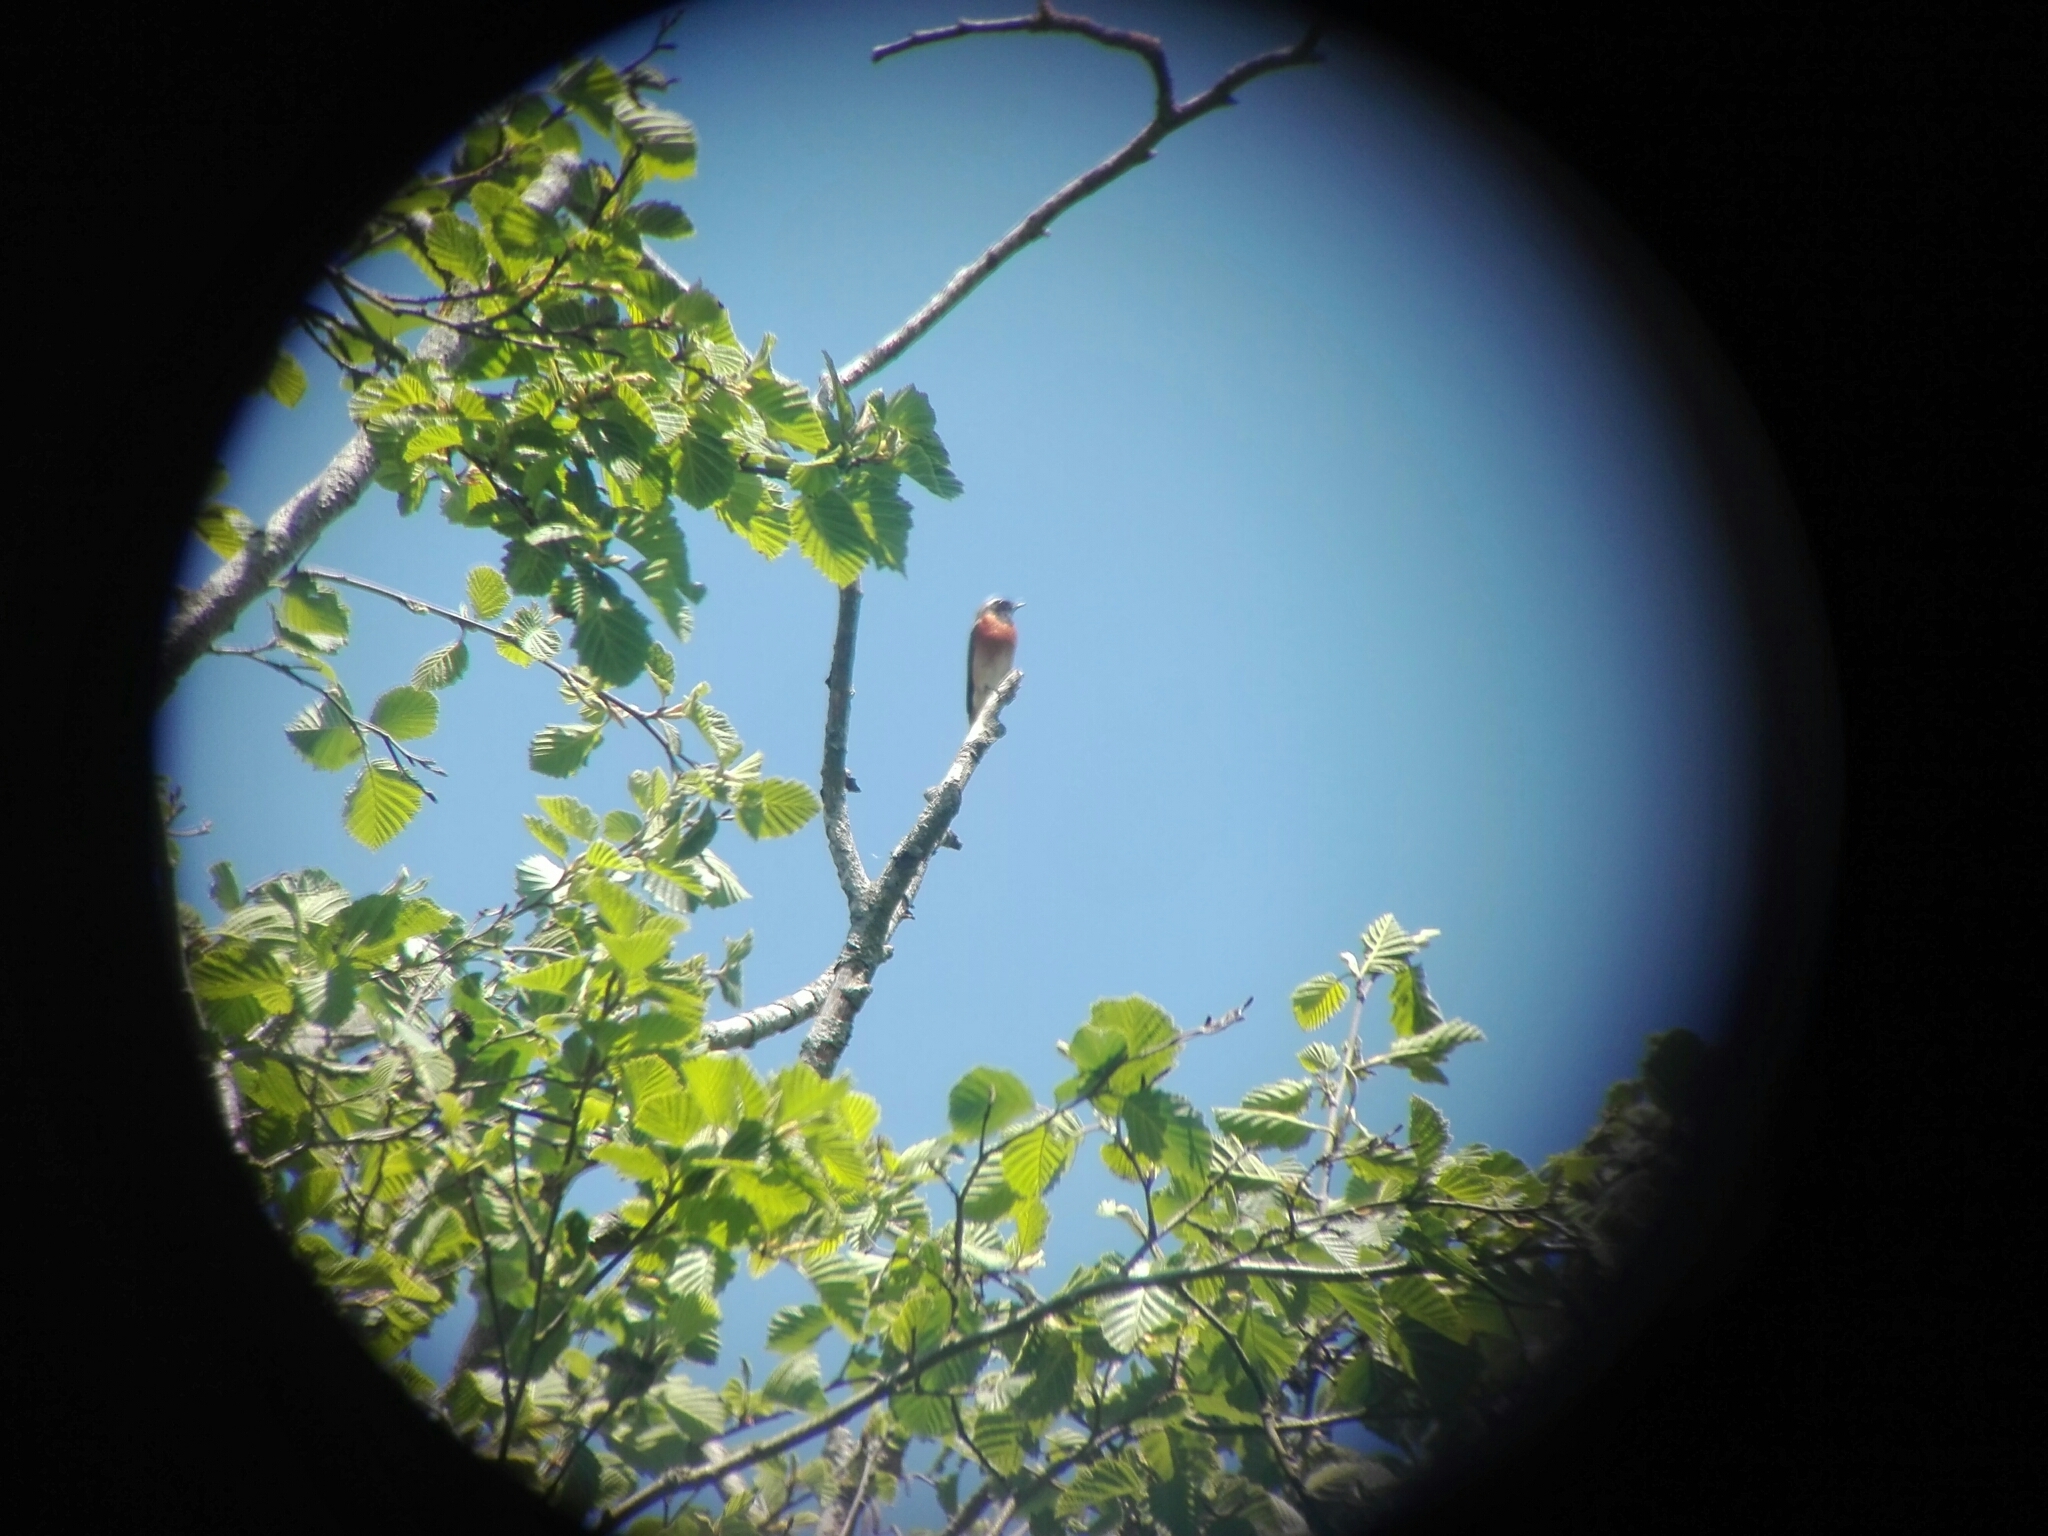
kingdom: Animalia
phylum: Chordata
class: Aves
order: Passeriformes
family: Muscicapidae
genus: Phoenicurus
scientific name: Phoenicurus phoenicurus
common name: Common redstart
